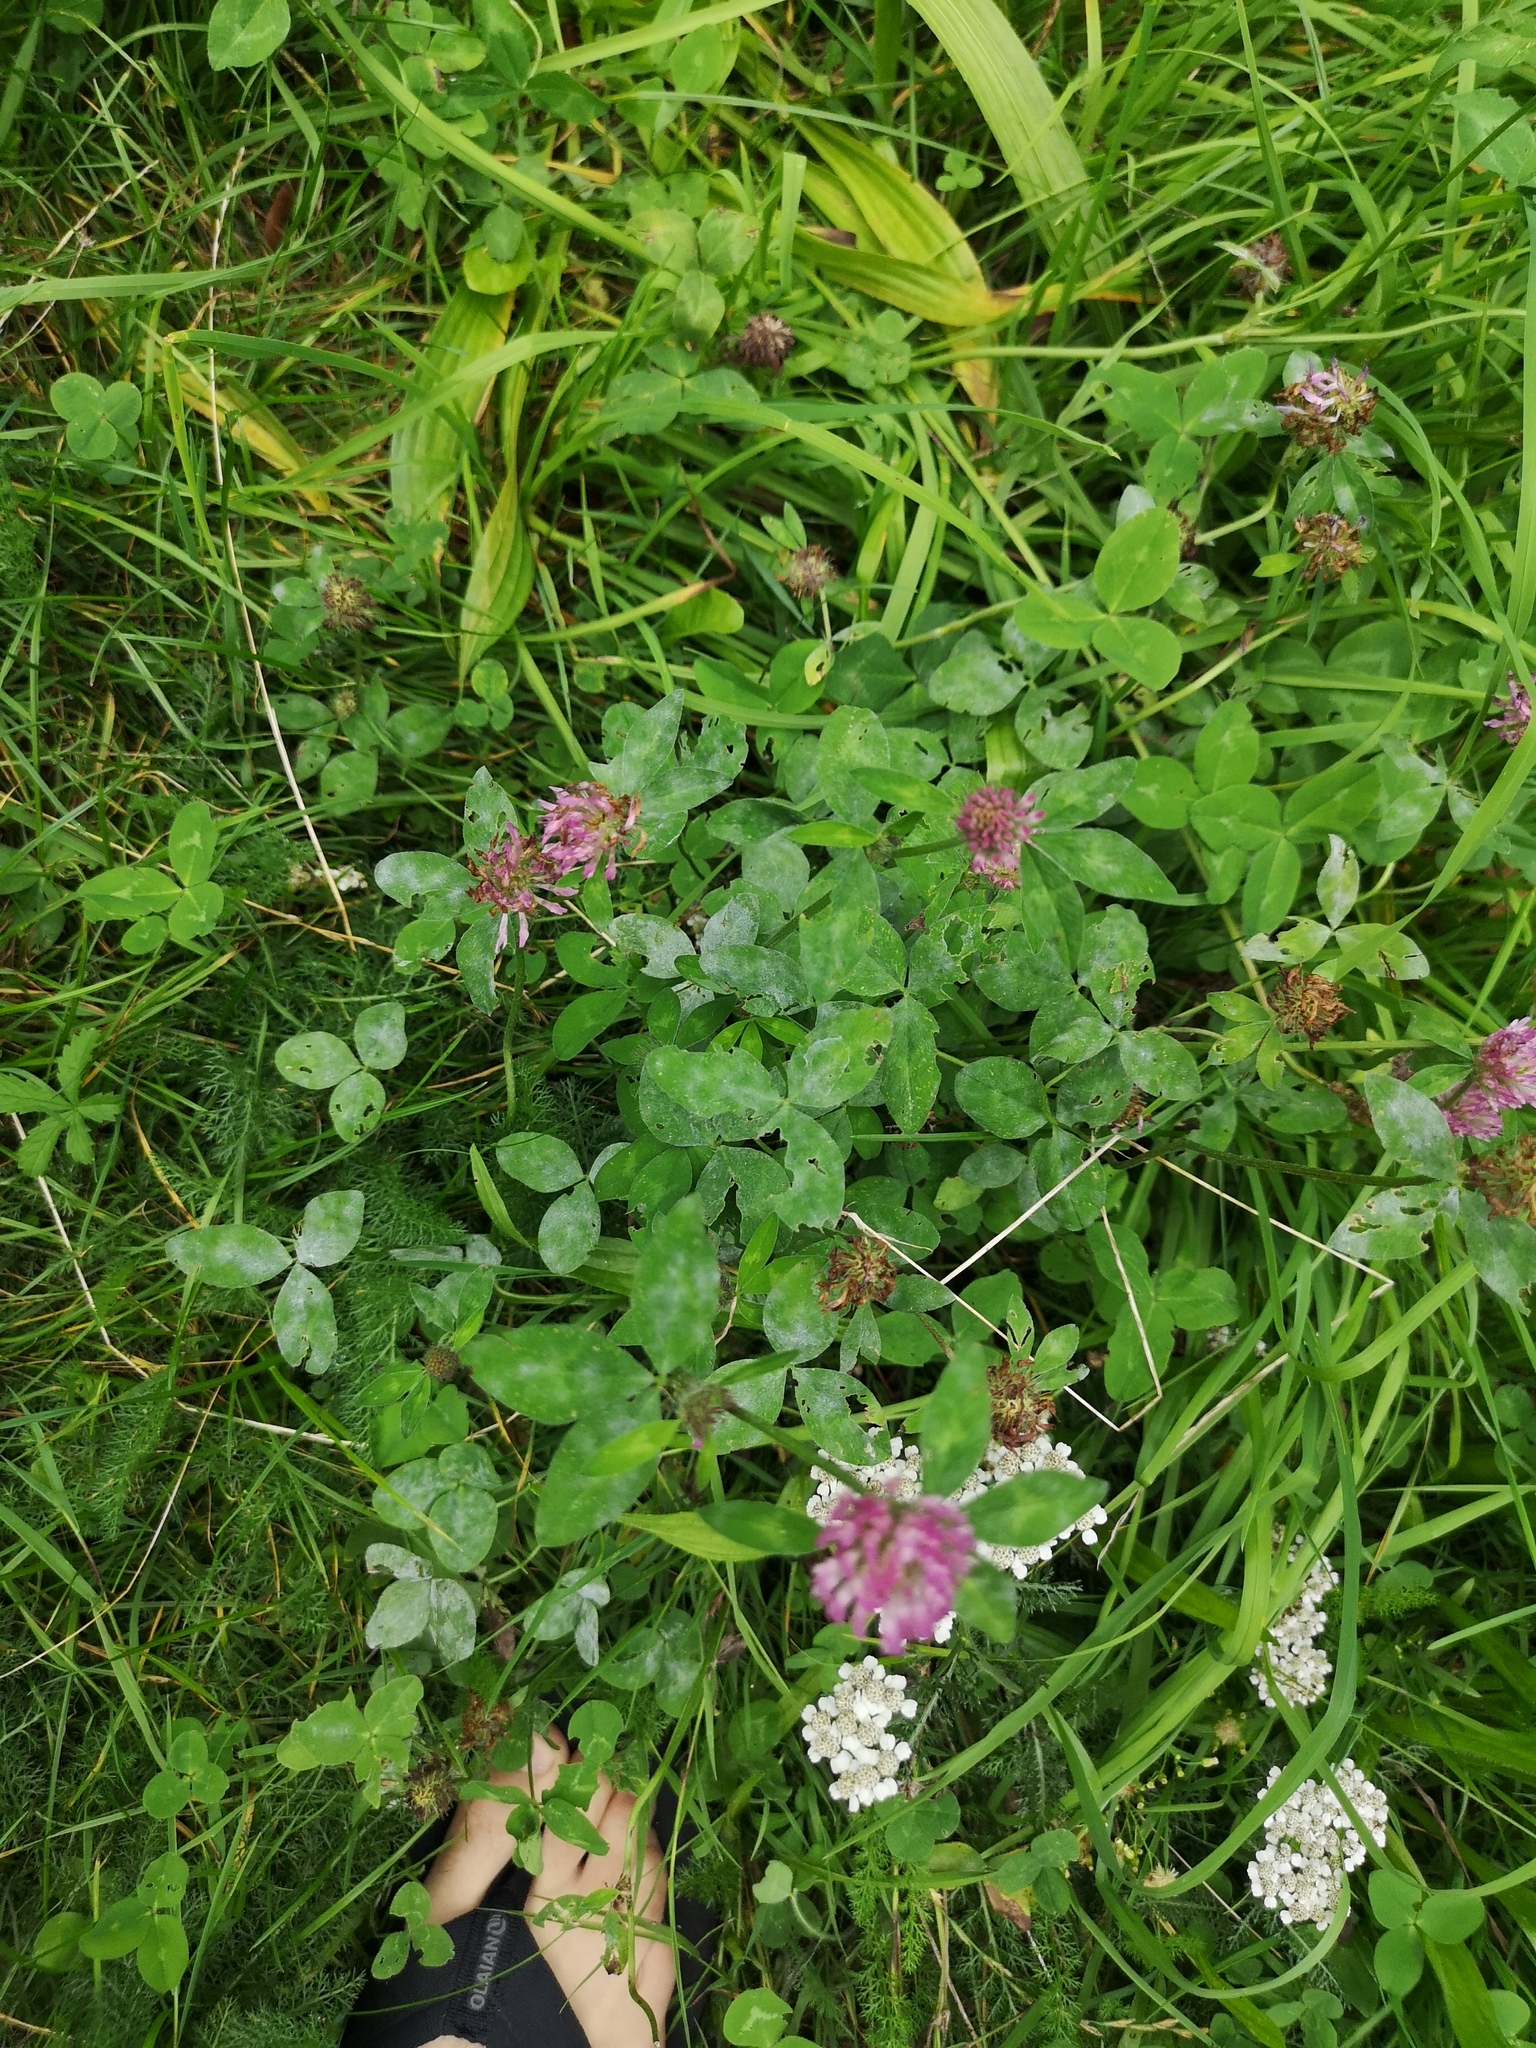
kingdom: Plantae
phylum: Tracheophyta
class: Magnoliopsida
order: Fabales
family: Fabaceae
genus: Trifolium
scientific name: Trifolium pratense
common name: Red clover
